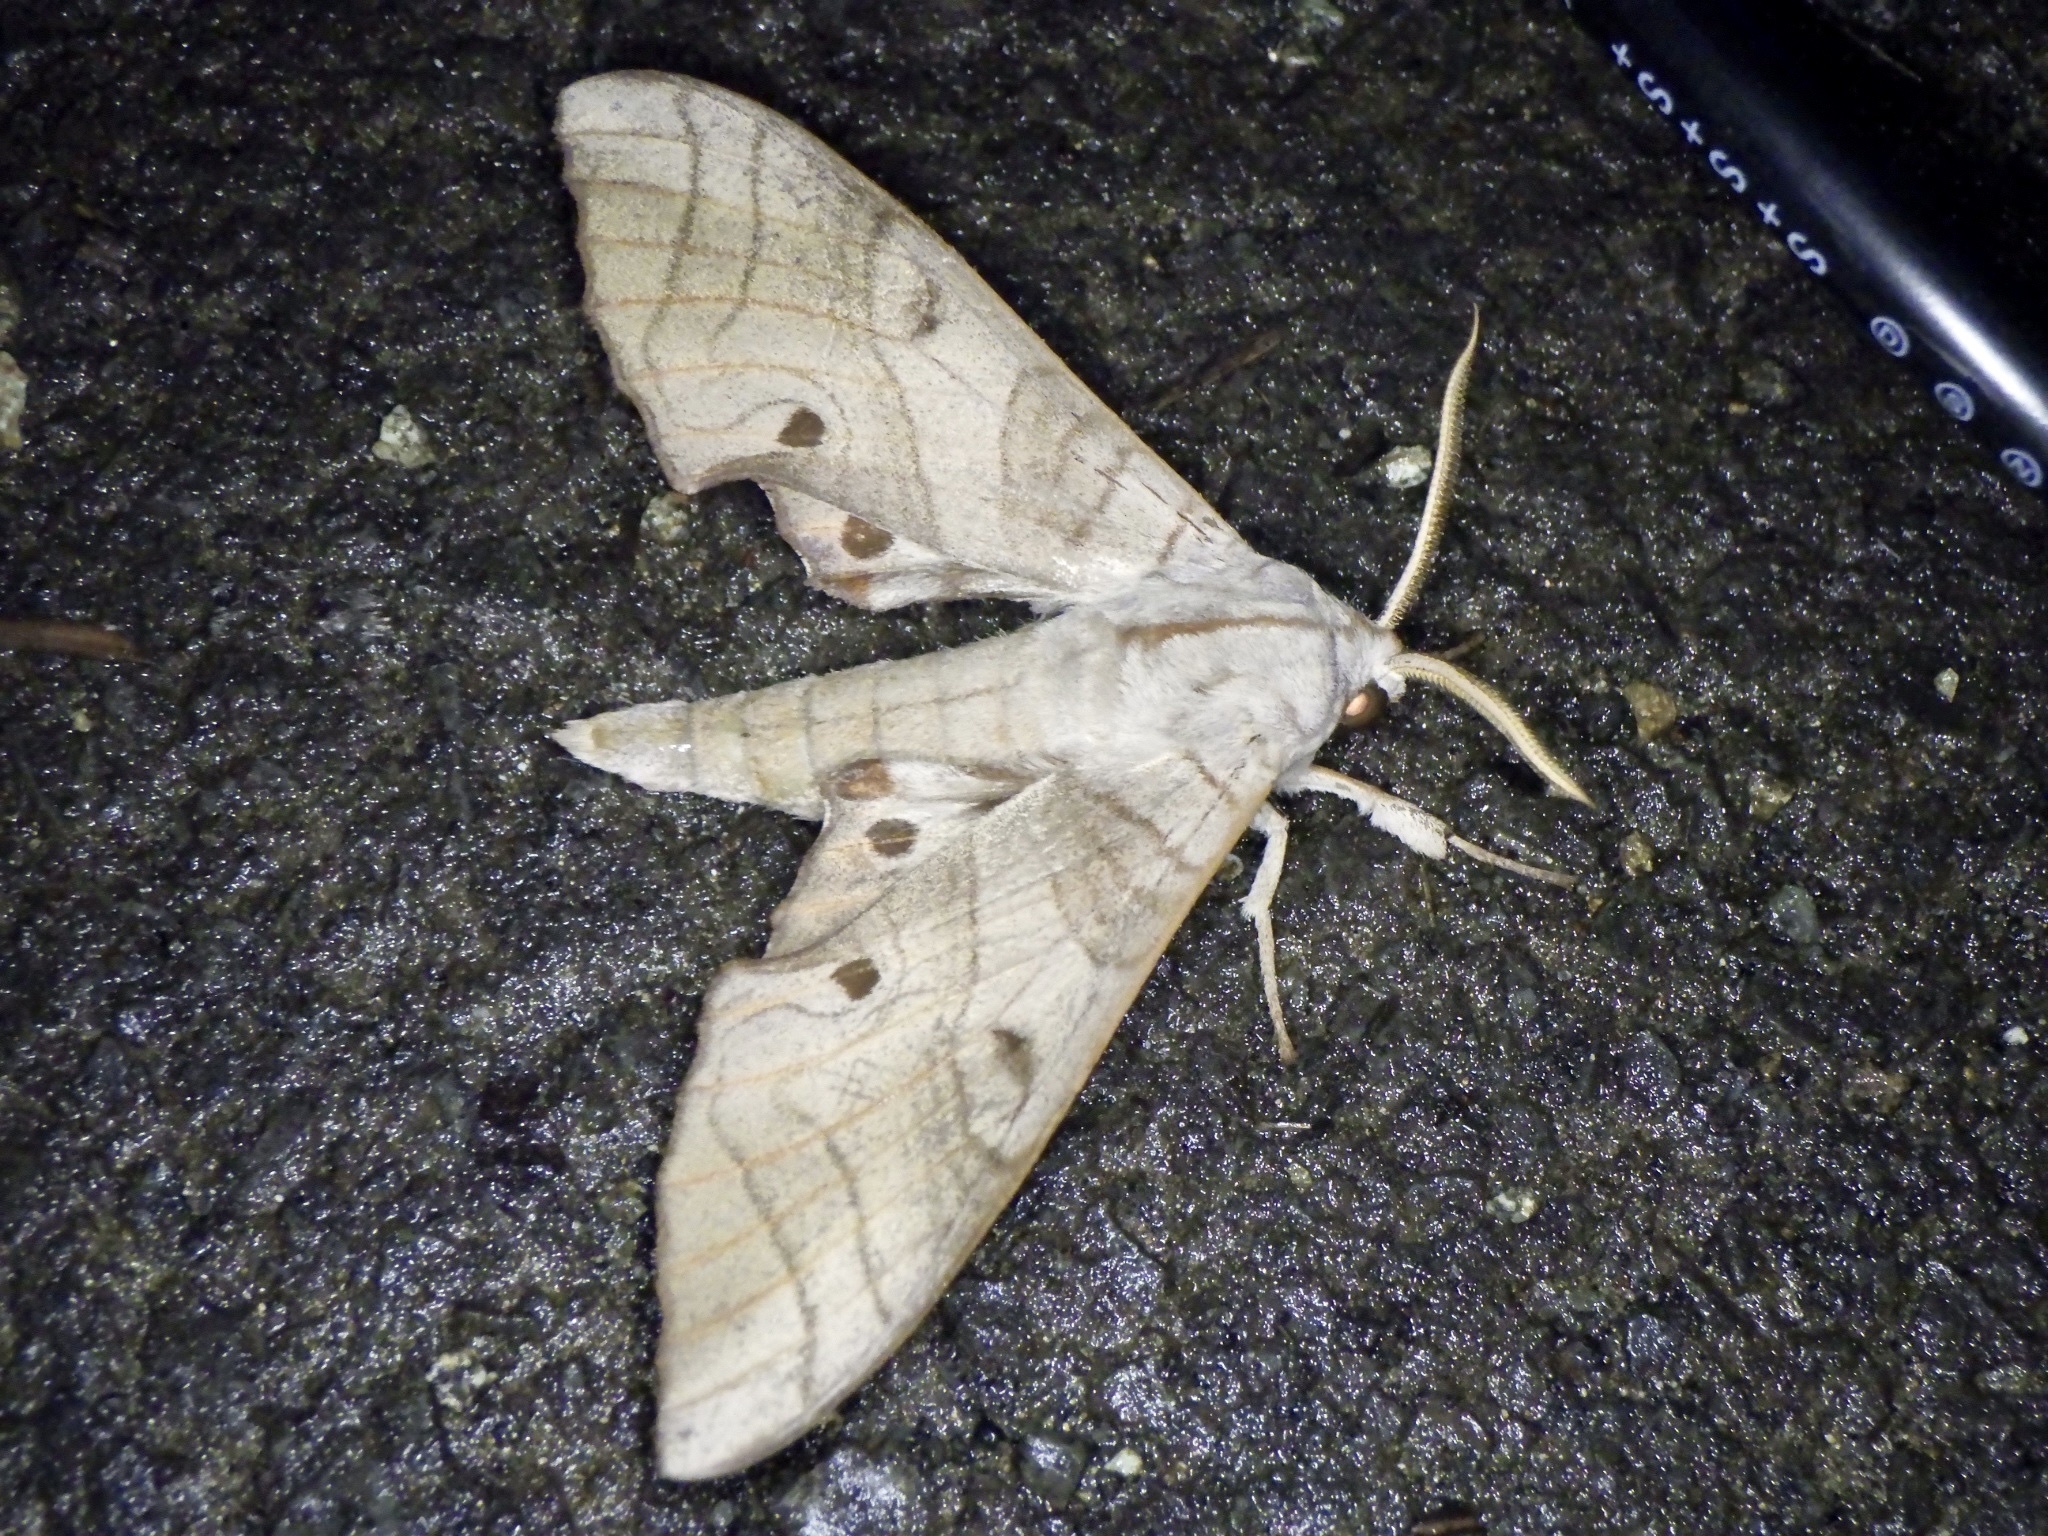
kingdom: Animalia
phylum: Arthropoda
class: Insecta
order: Lepidoptera
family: Sphingidae
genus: Marumba
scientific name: Marumba sperchius
